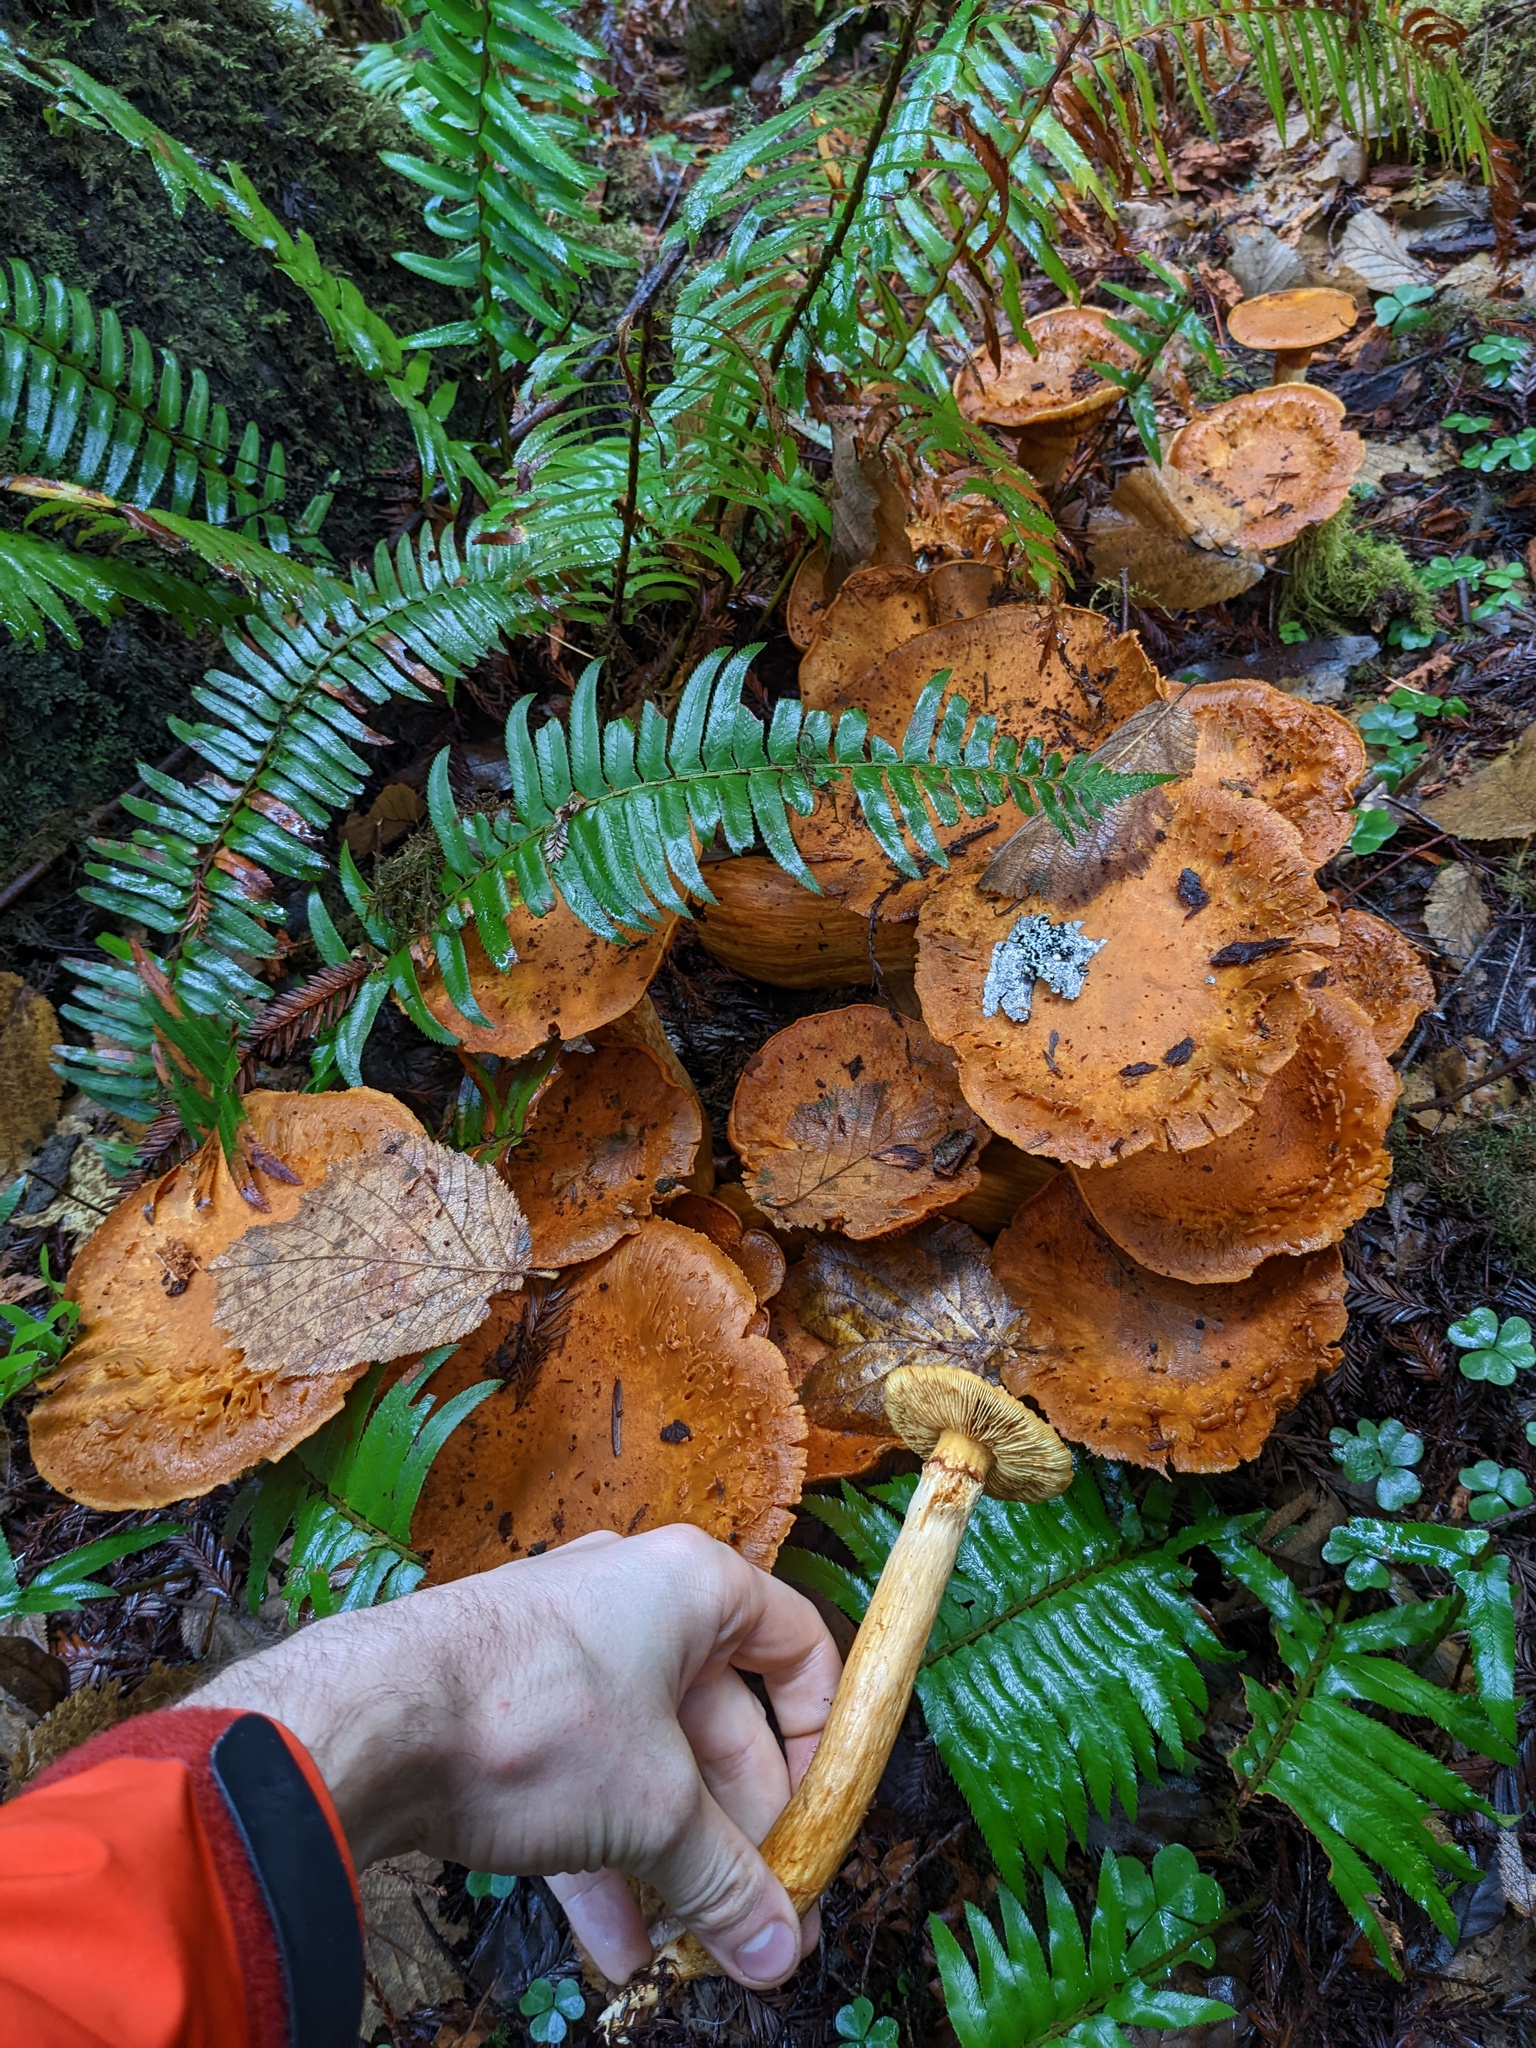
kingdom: Fungi
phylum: Basidiomycota
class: Agaricomycetes
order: Agaricales
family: Hymenogastraceae
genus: Gymnopilus
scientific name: Gymnopilus ventricosus
